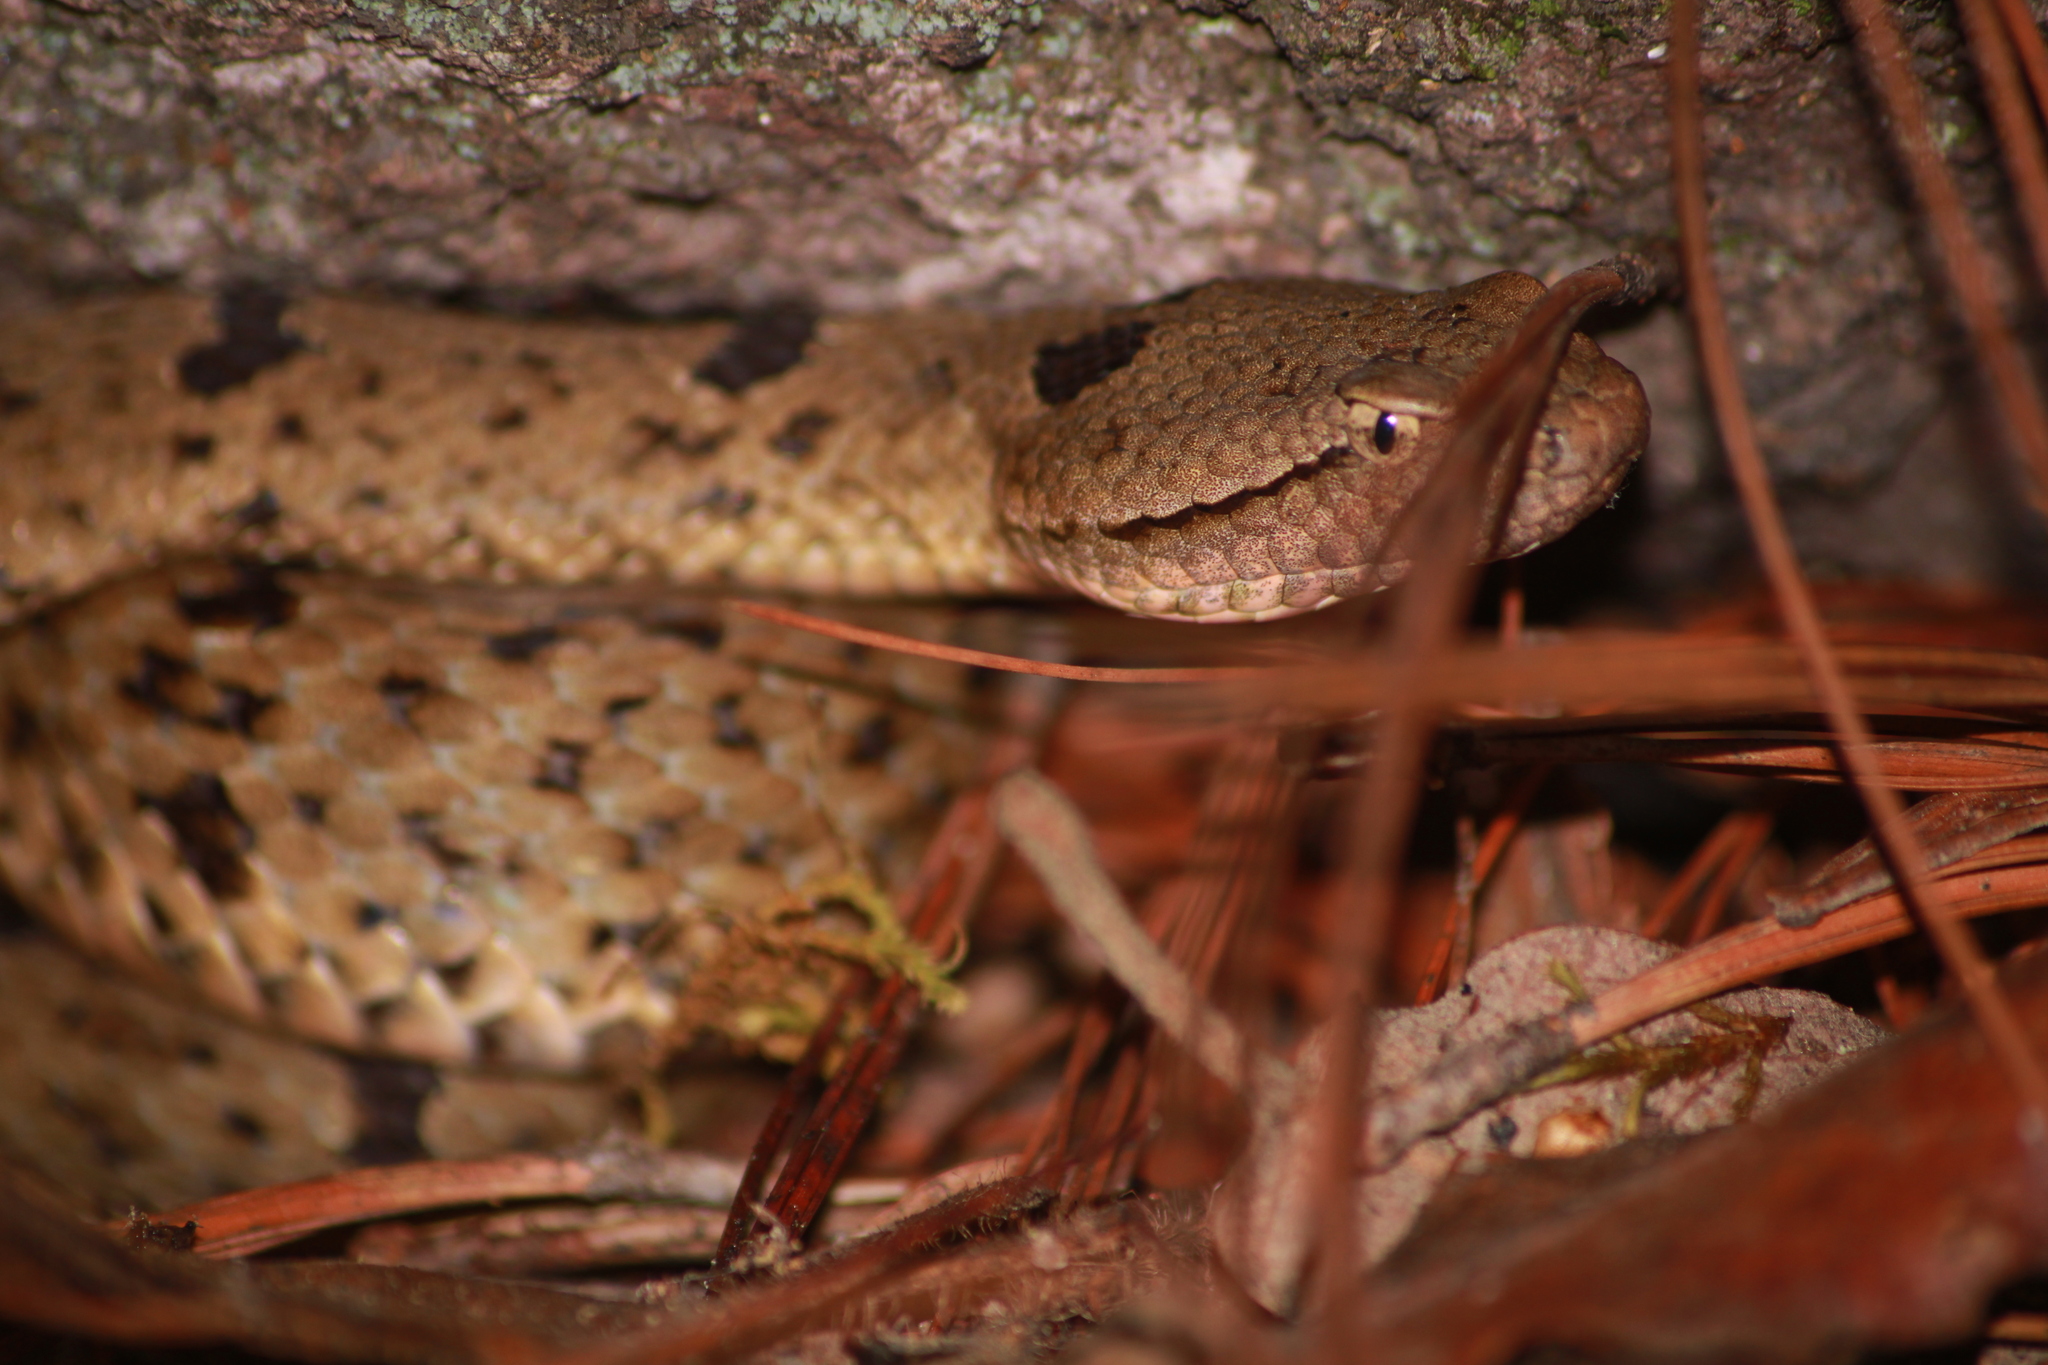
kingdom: Animalia
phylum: Chordata
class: Squamata
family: Viperidae
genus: Crotalus
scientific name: Crotalus lepidus
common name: Rock rattlesnake
